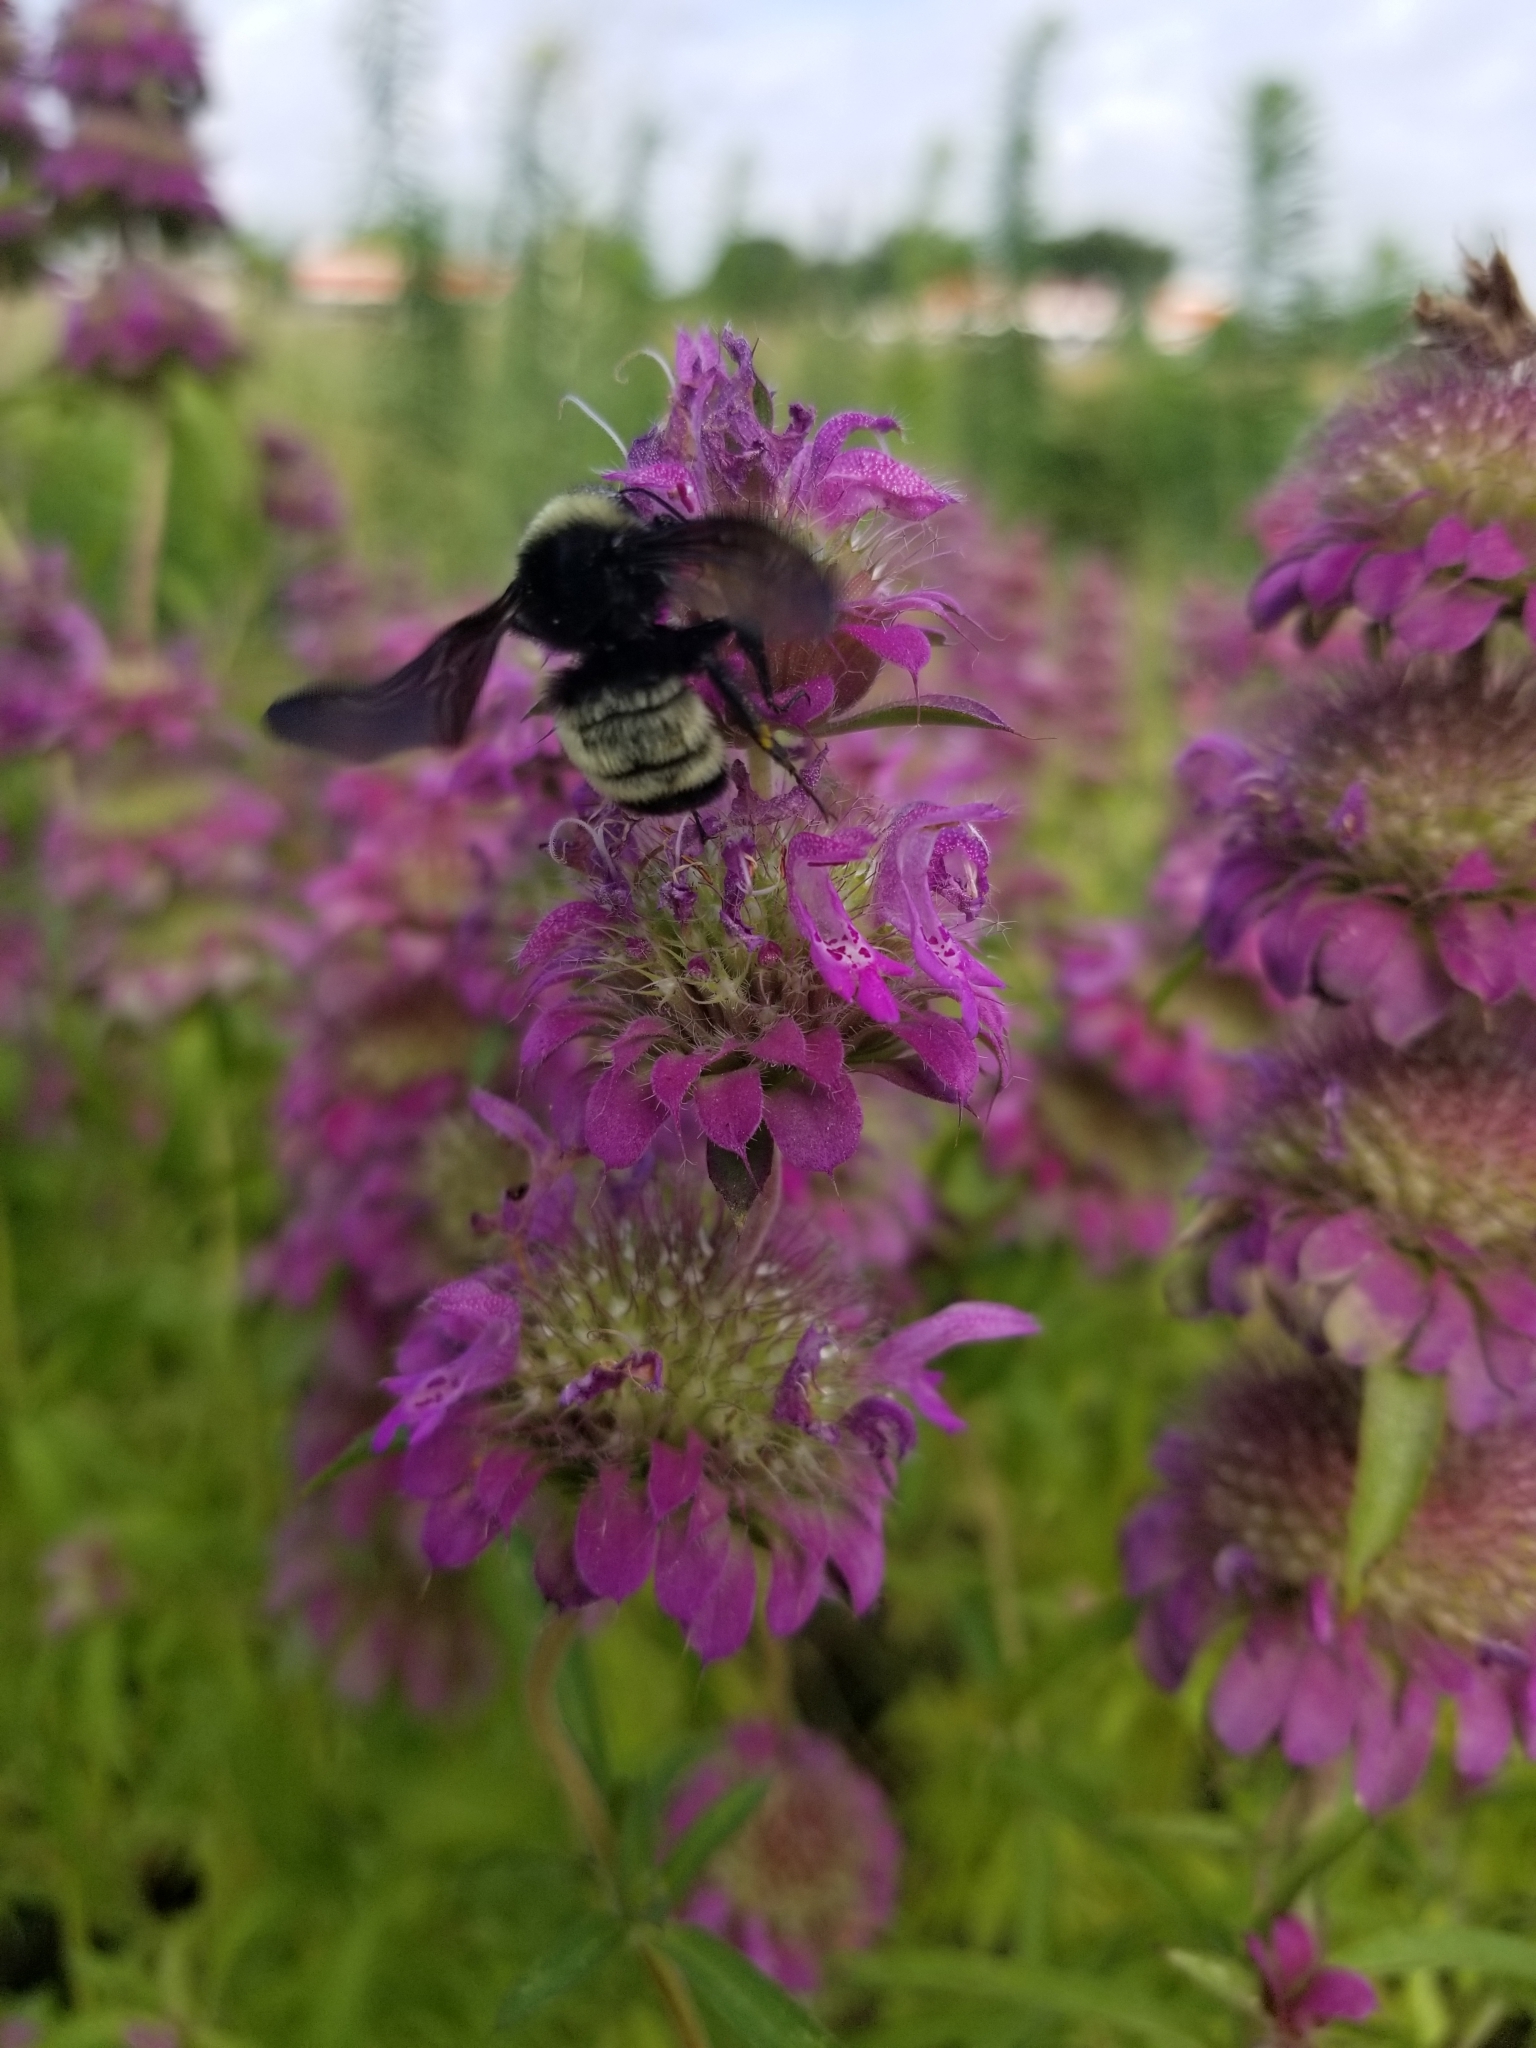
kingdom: Animalia
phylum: Arthropoda
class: Insecta
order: Hymenoptera
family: Apidae
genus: Bombus
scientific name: Bombus pensylvanicus
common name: Bumble bee
